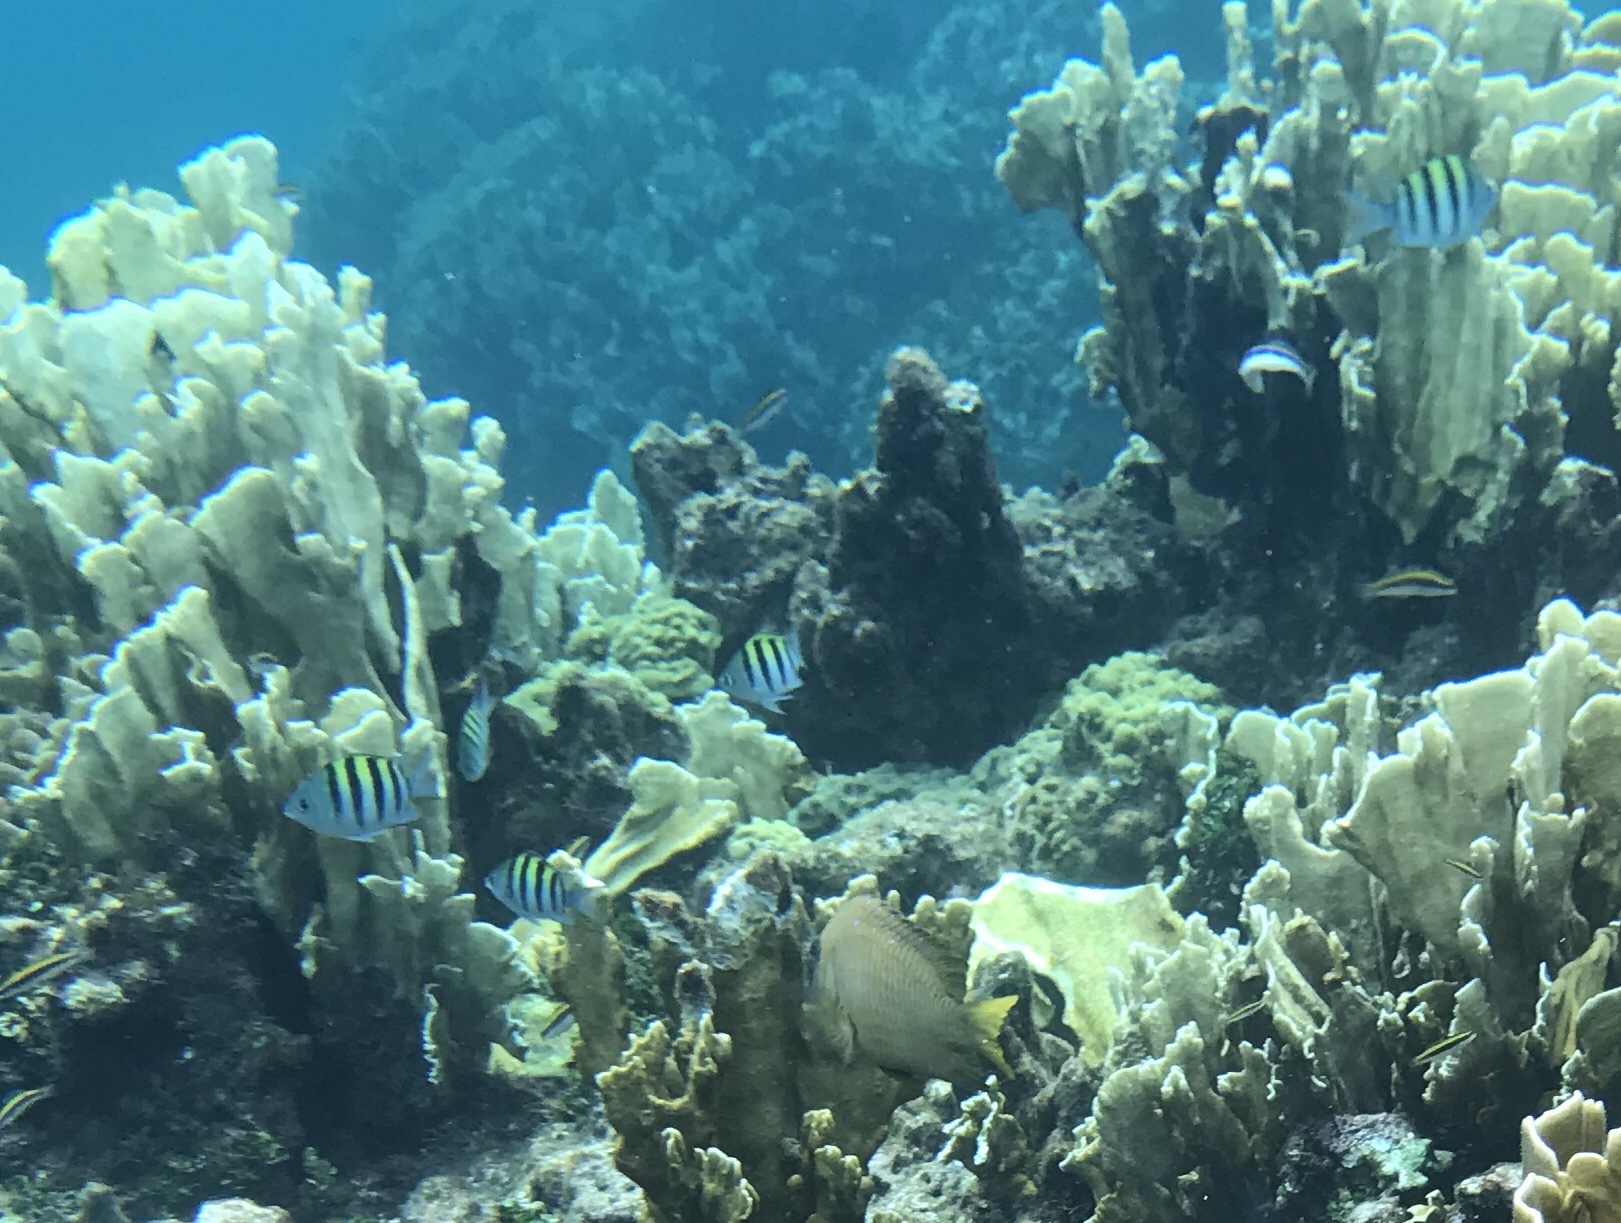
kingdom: Animalia
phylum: Chordata
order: Perciformes
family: Pomacentridae
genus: Abudefduf
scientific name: Abudefduf saxatilis
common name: Sergeant major
